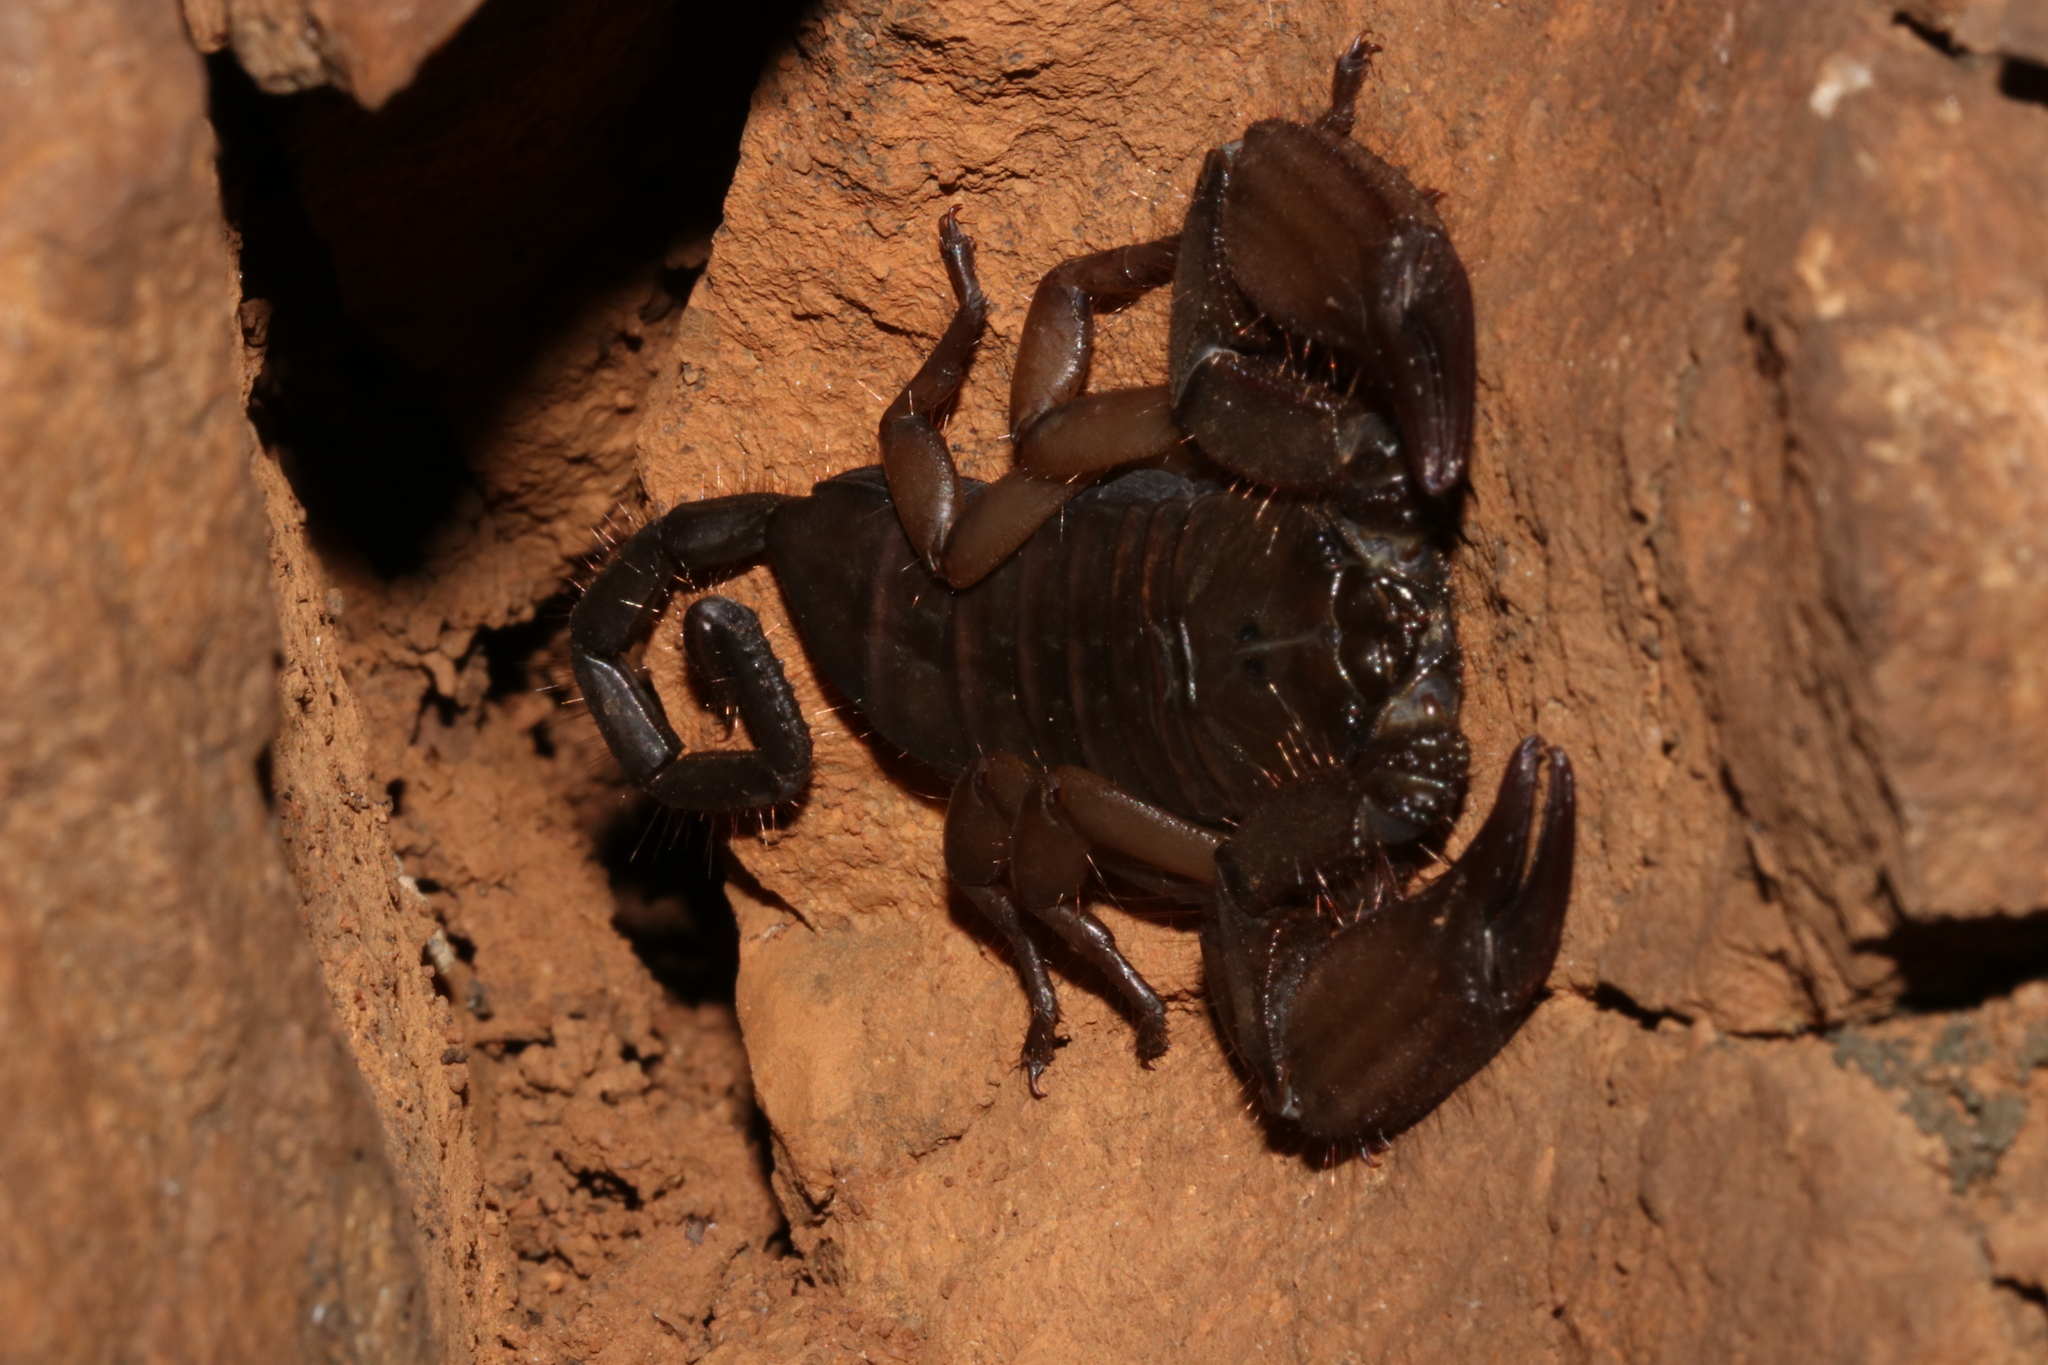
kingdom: Animalia
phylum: Arthropoda
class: Arachnida
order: Scorpiones
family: Hormuridae
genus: Hadogenes
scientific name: Hadogenes soutpansbergensis
